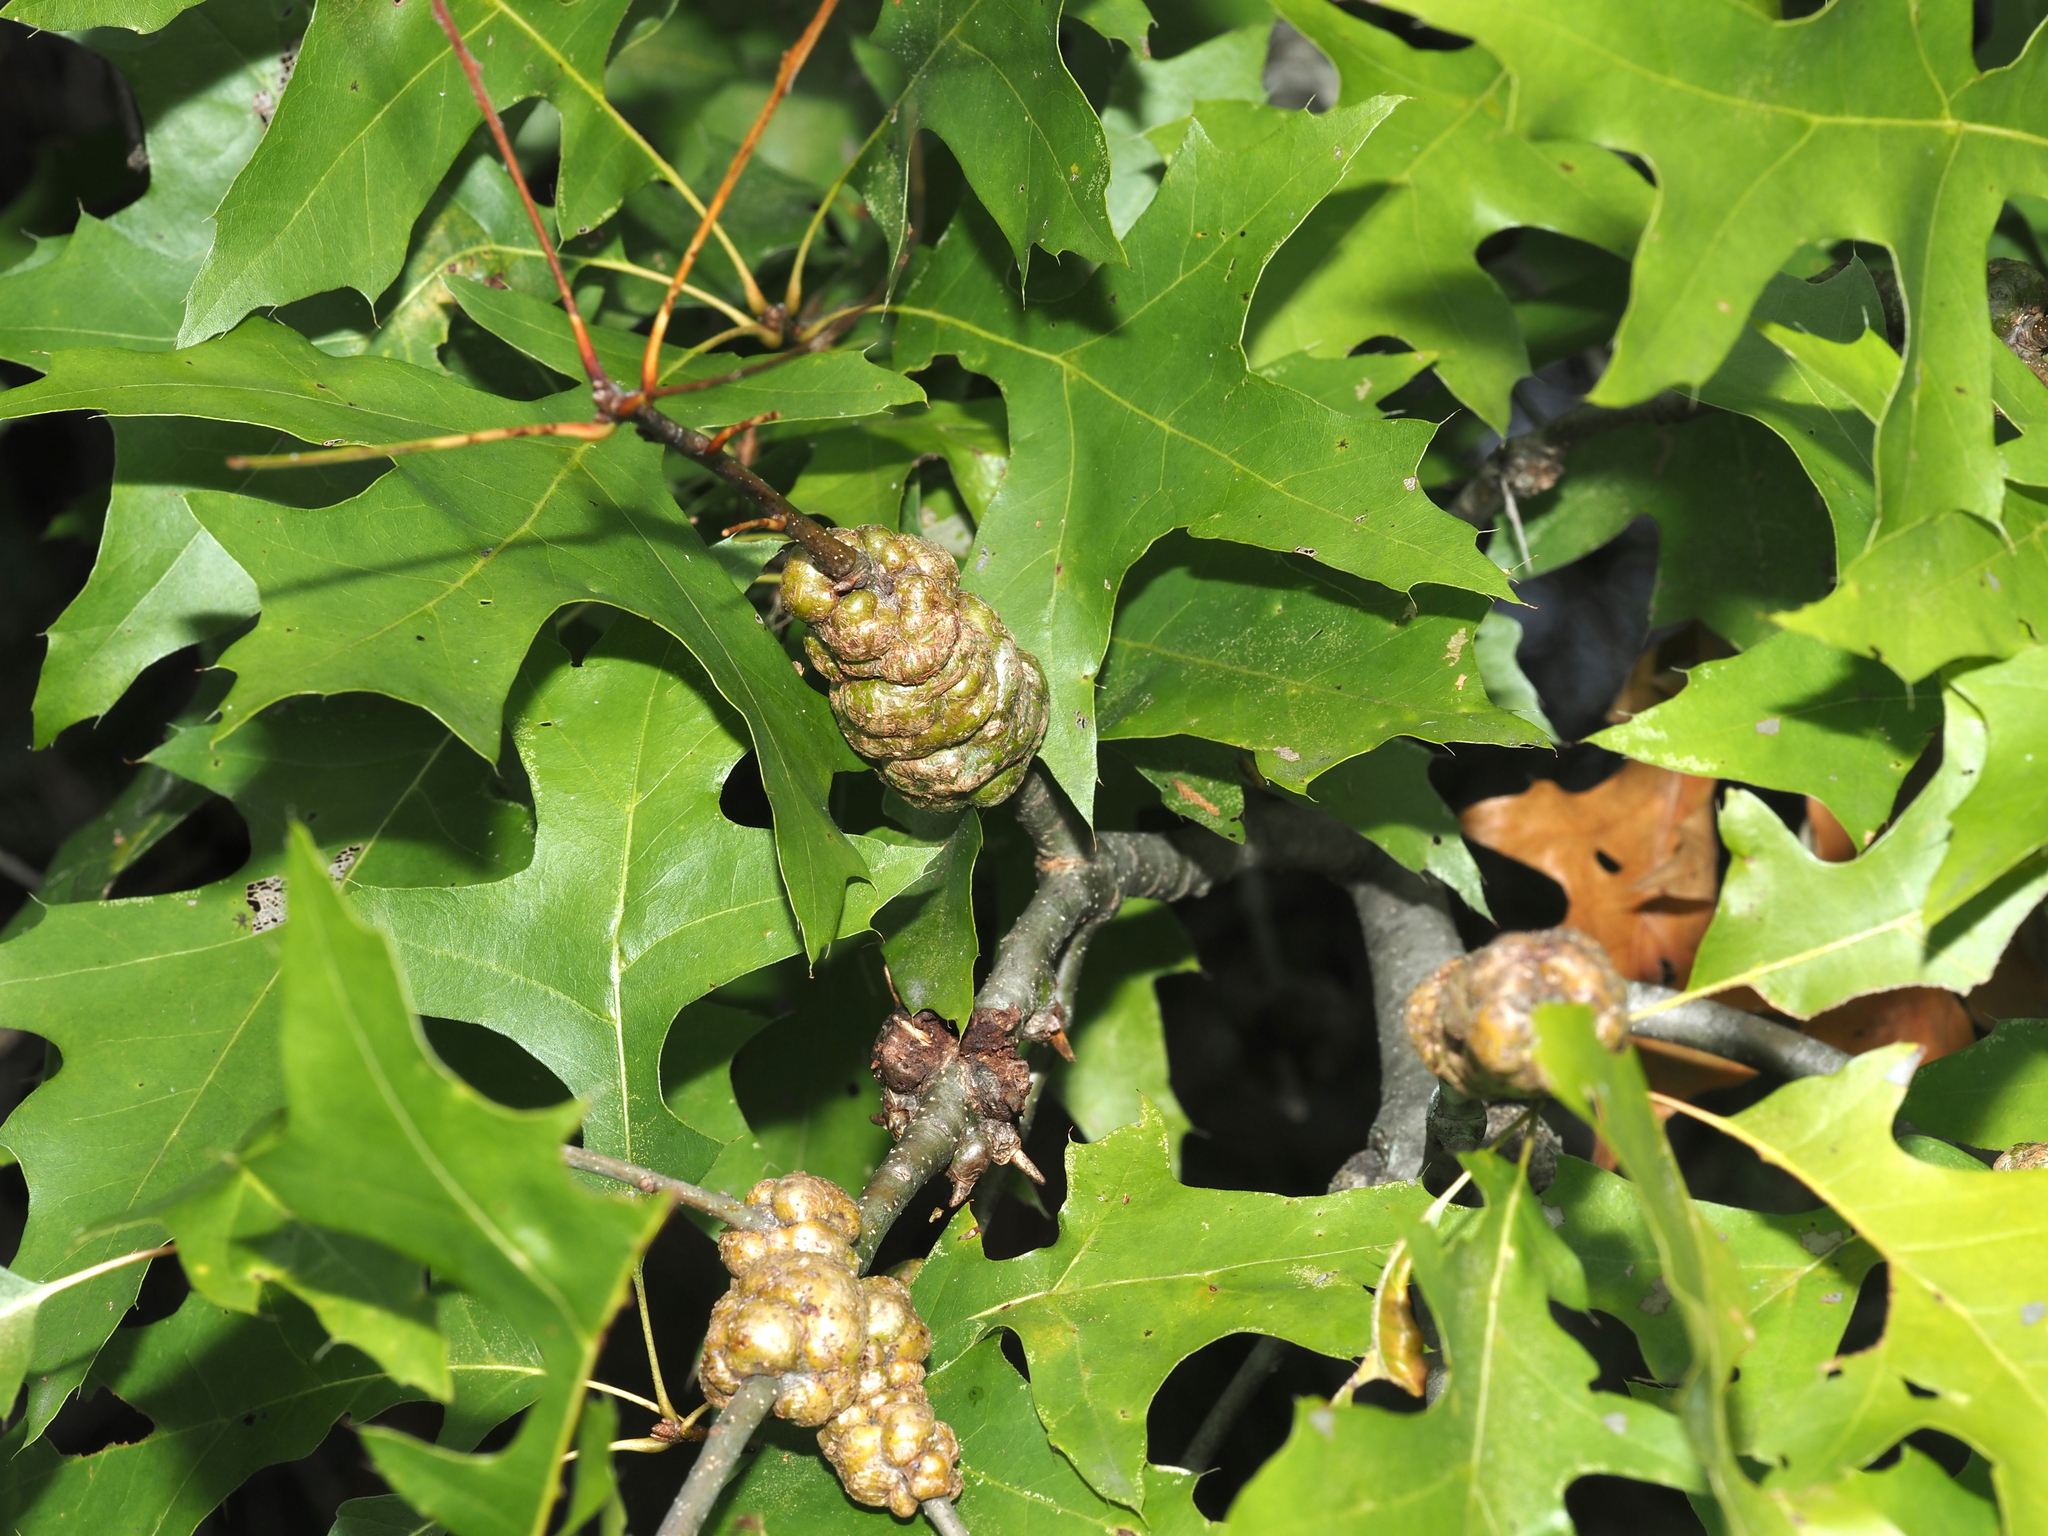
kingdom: Animalia
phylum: Arthropoda
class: Insecta
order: Hymenoptera
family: Cynipidae
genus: Callirhytis
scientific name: Callirhytis
